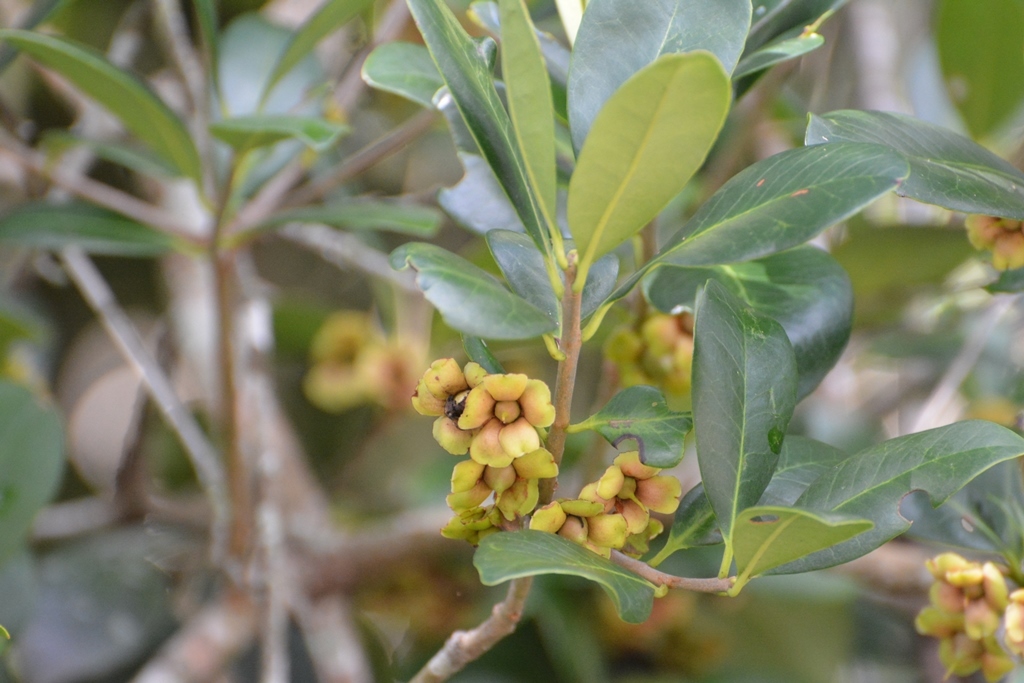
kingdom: Plantae
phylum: Tracheophyta
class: Magnoliopsida
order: Ericales
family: Pentaphylacaceae
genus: Ternstroemia
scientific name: Ternstroemia tepezapote
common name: Copey vera
